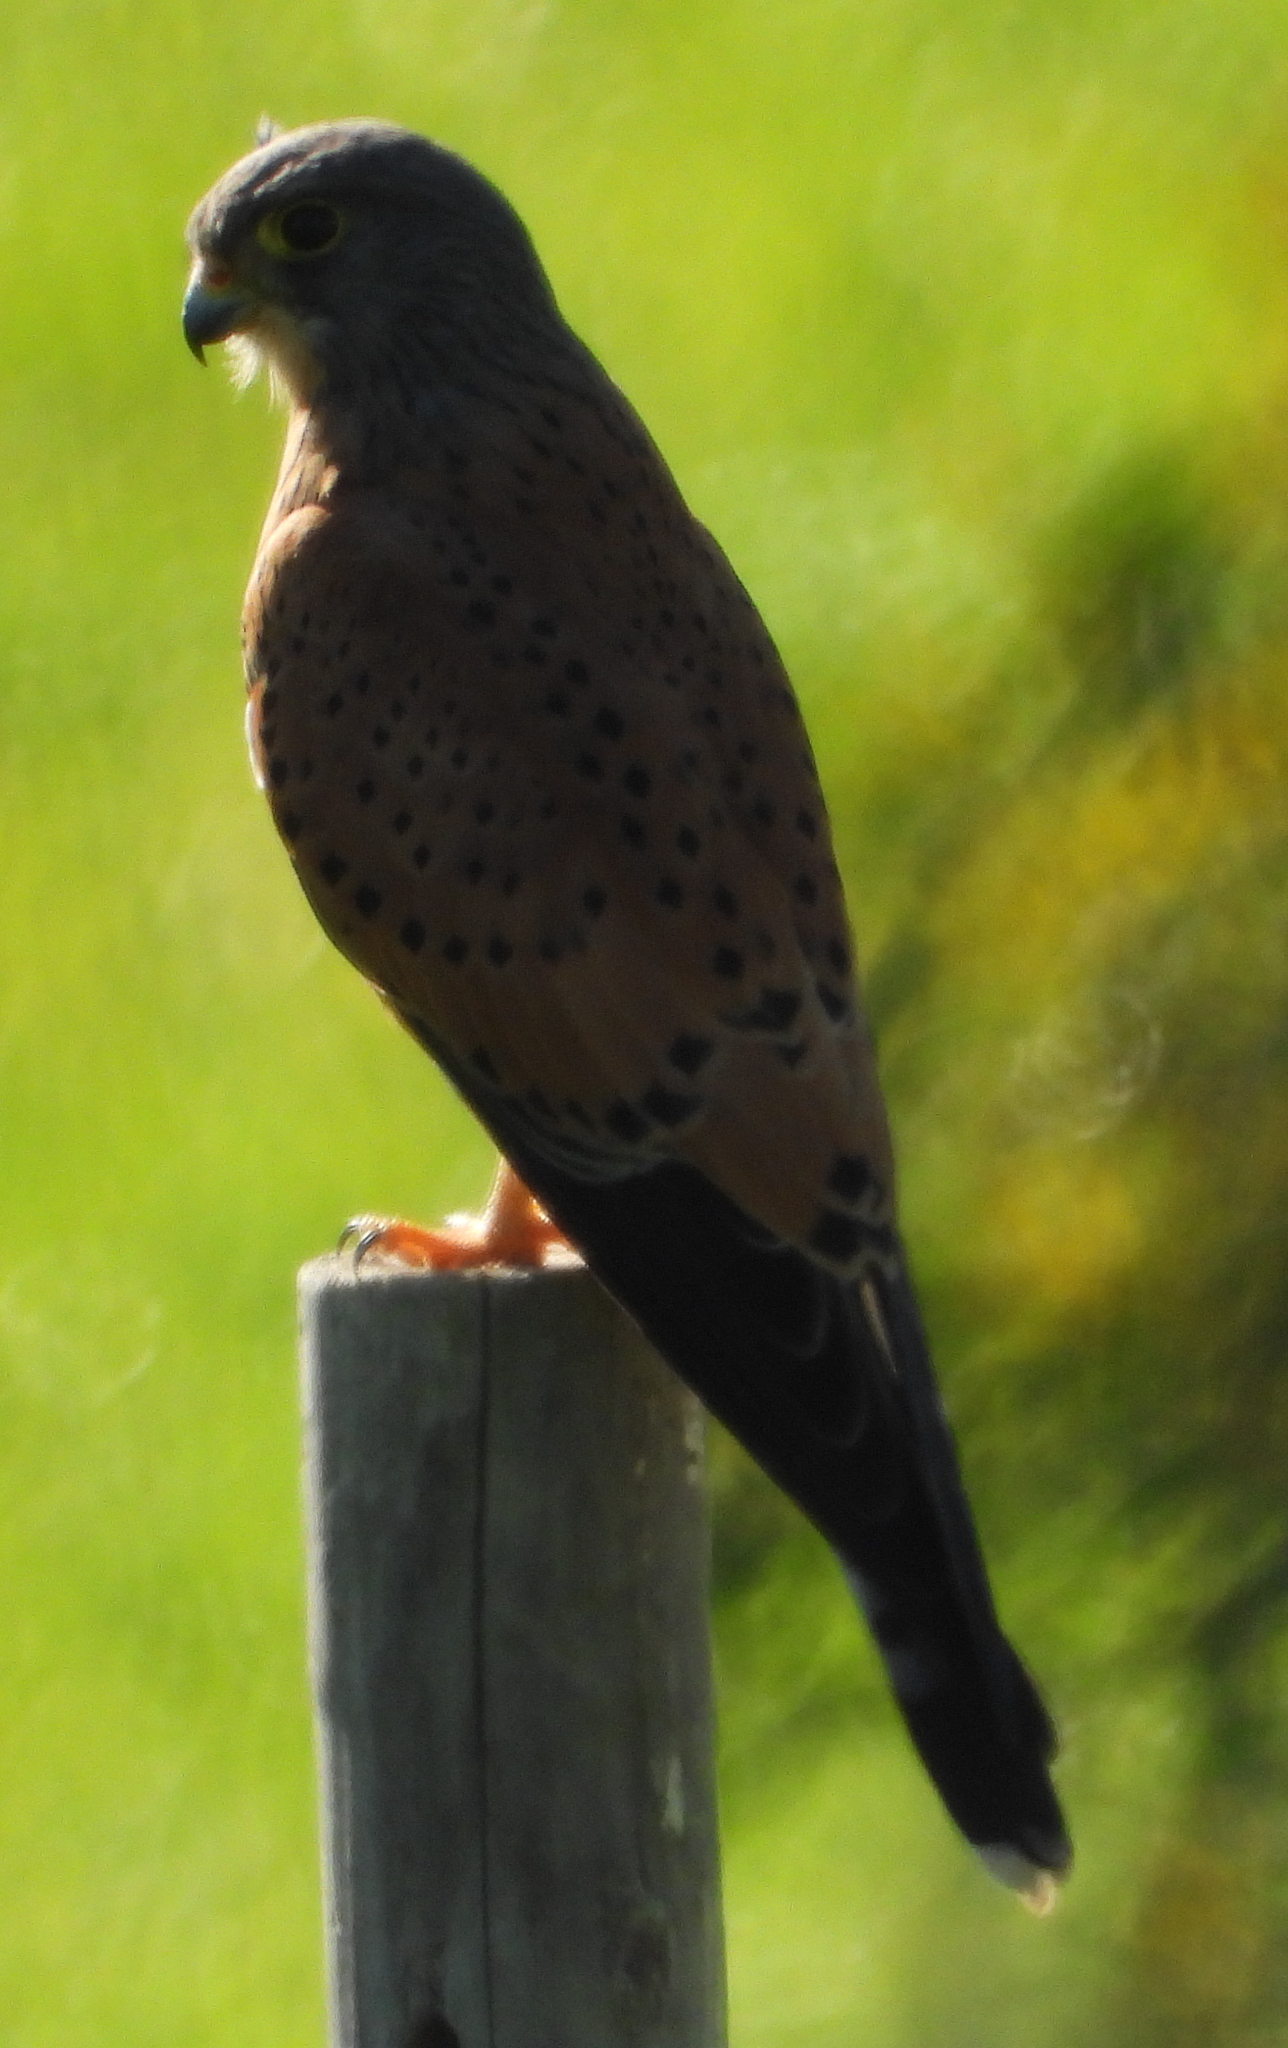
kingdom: Animalia
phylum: Chordata
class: Aves
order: Falconiformes
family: Falconidae
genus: Falco
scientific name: Falco rupicolus
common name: Rock kestrel
